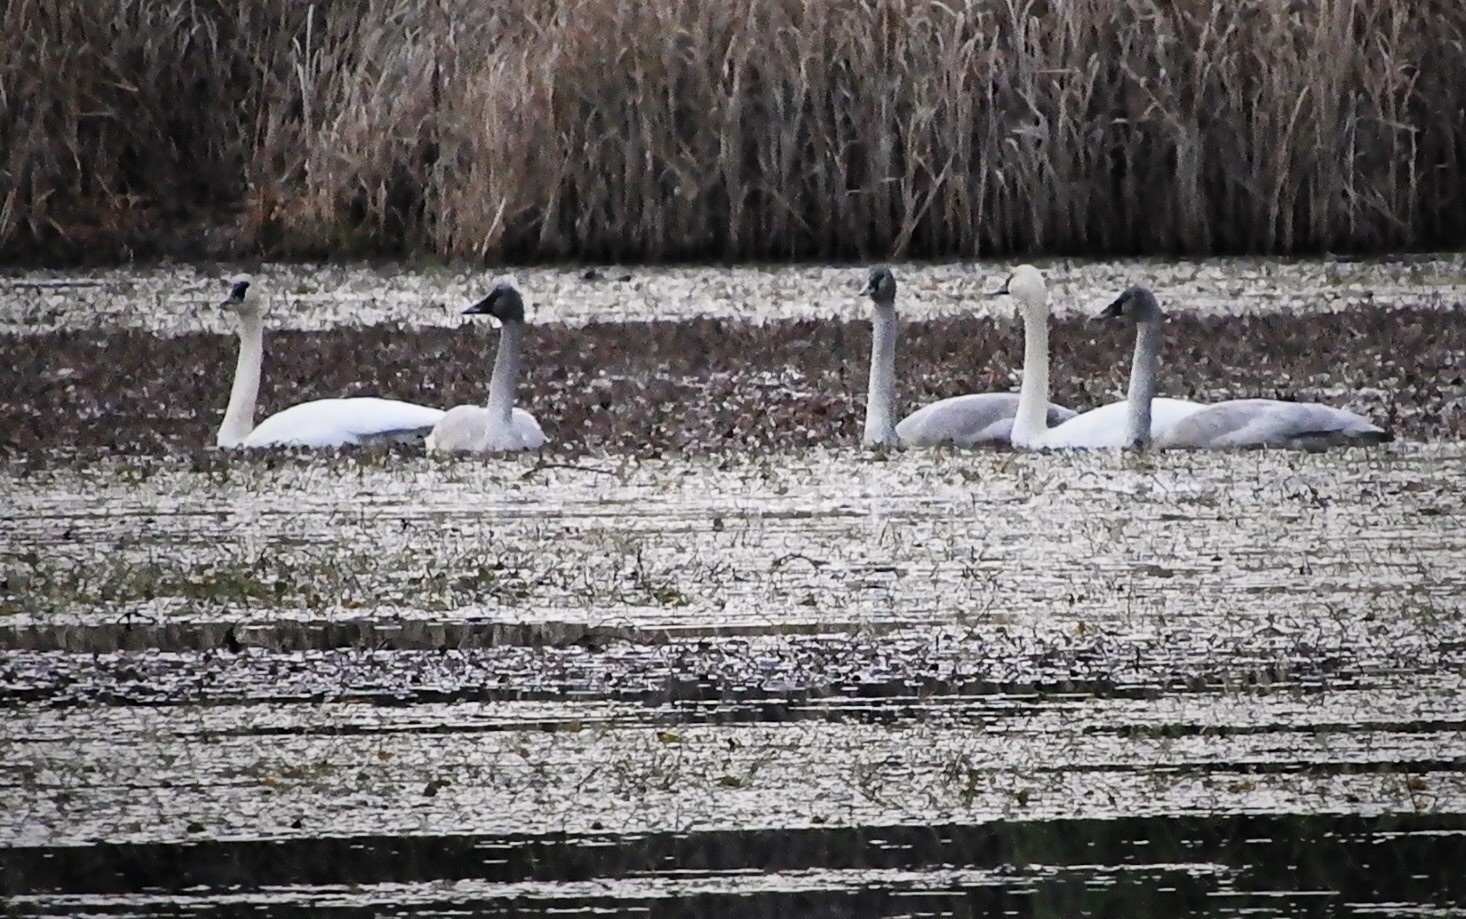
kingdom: Animalia
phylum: Chordata
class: Aves
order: Anseriformes
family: Anatidae
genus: Cygnus
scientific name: Cygnus buccinator
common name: Trumpeter swan
